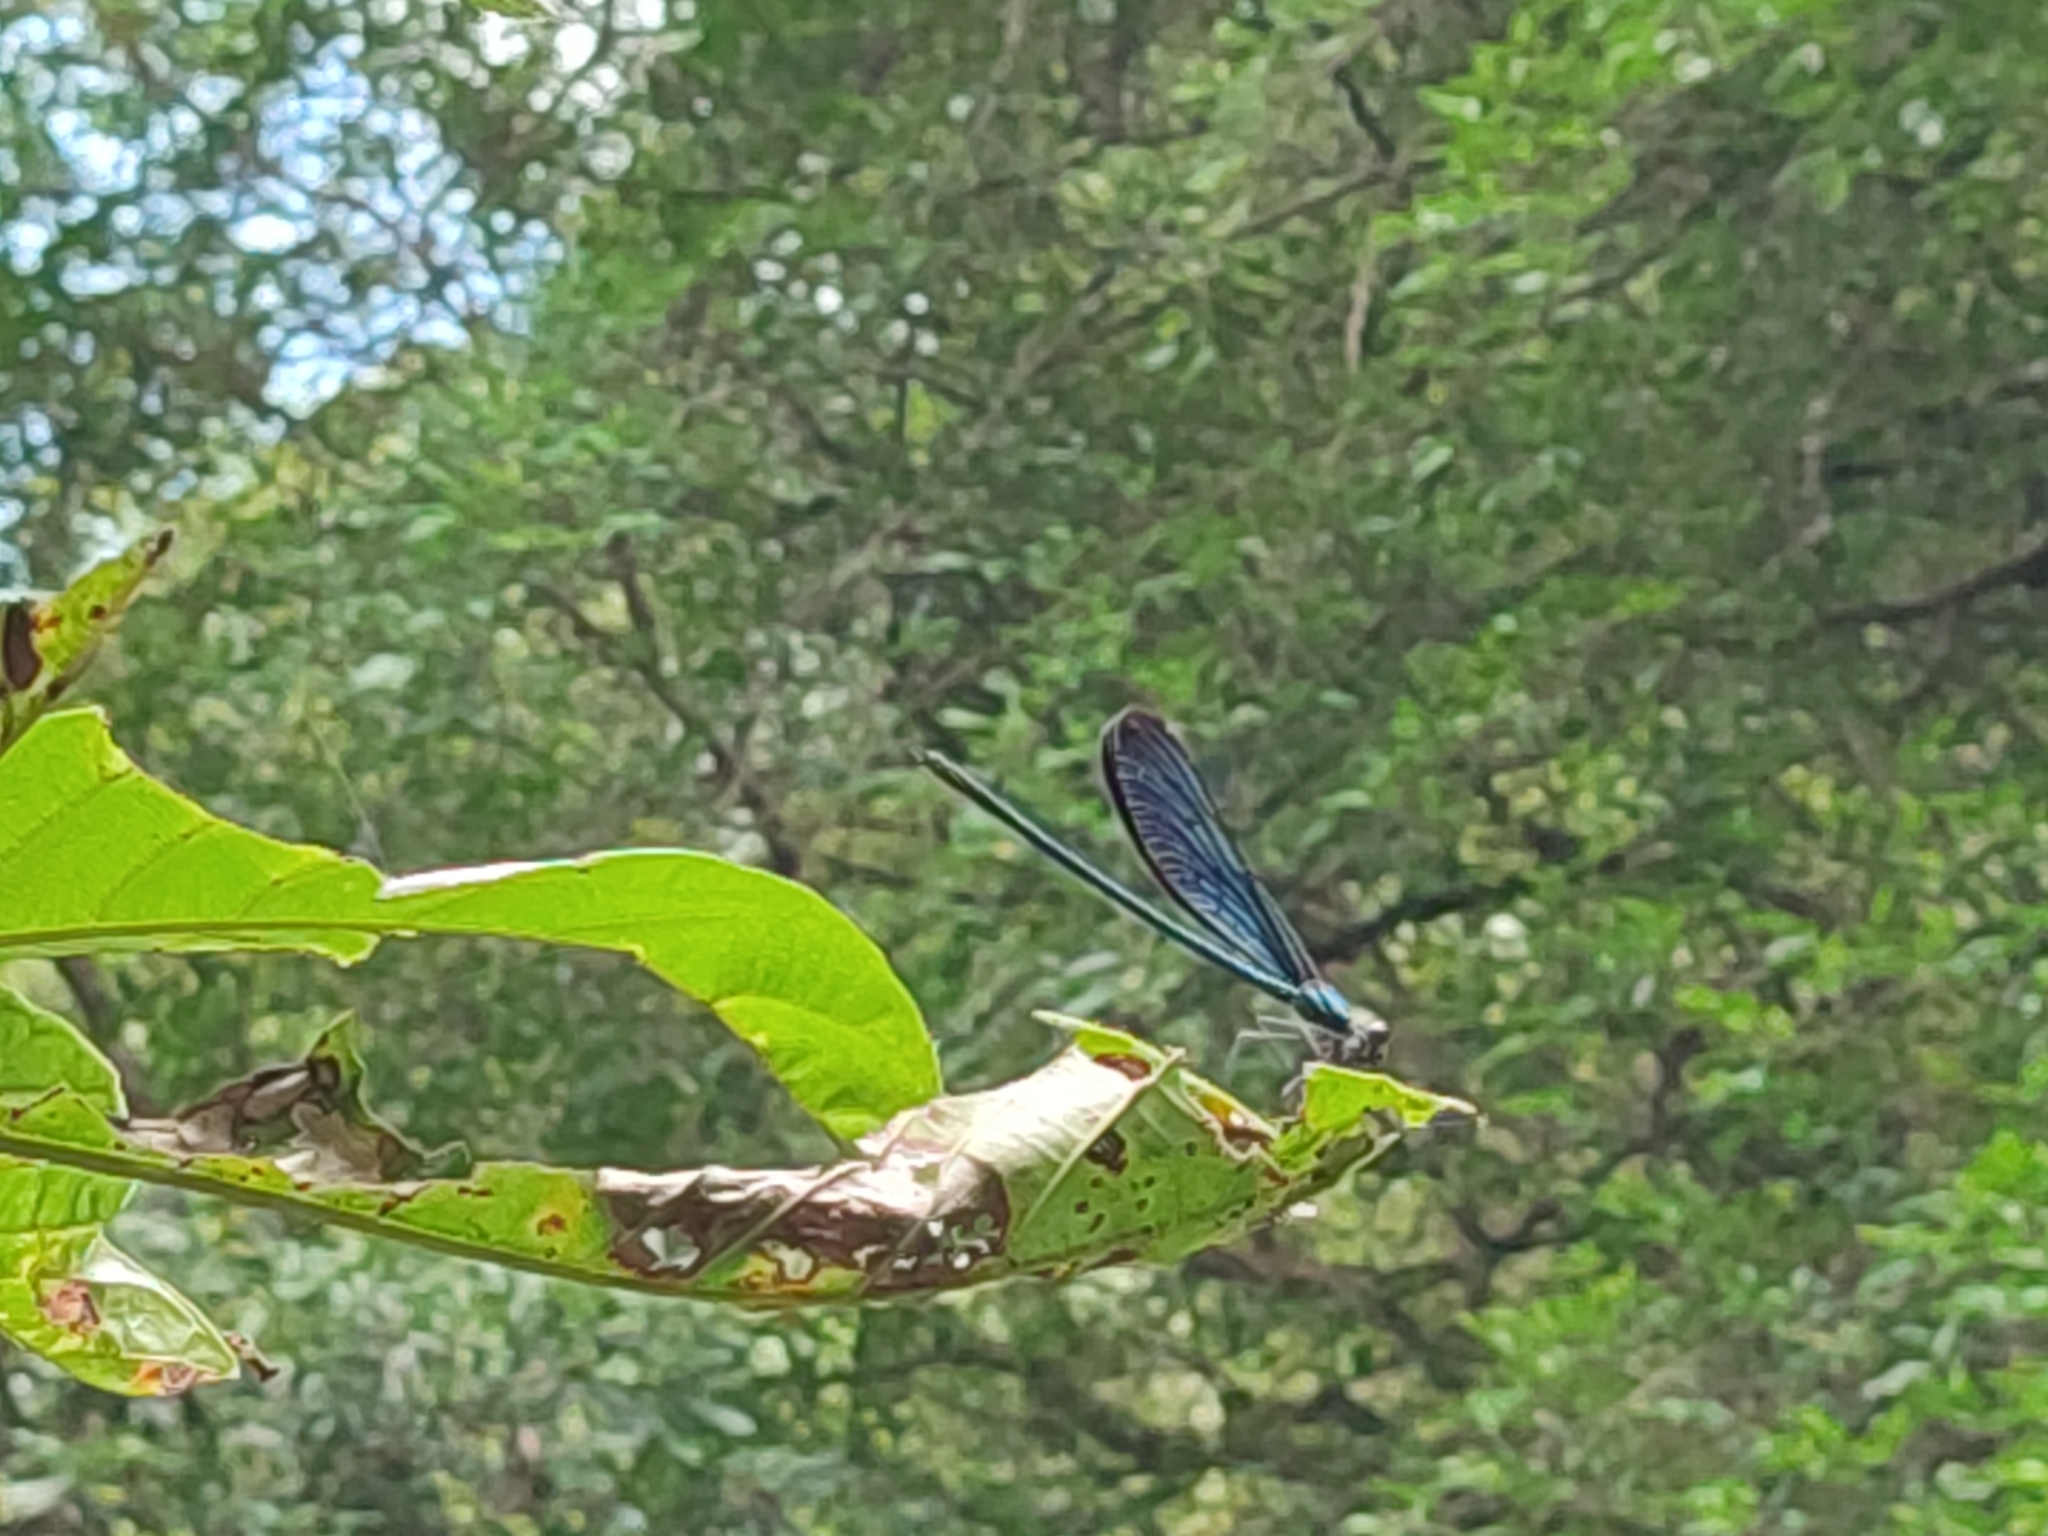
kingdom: Animalia
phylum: Arthropoda
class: Insecta
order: Odonata
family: Calopterygidae
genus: Matrona
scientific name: Matrona cyanoptera
